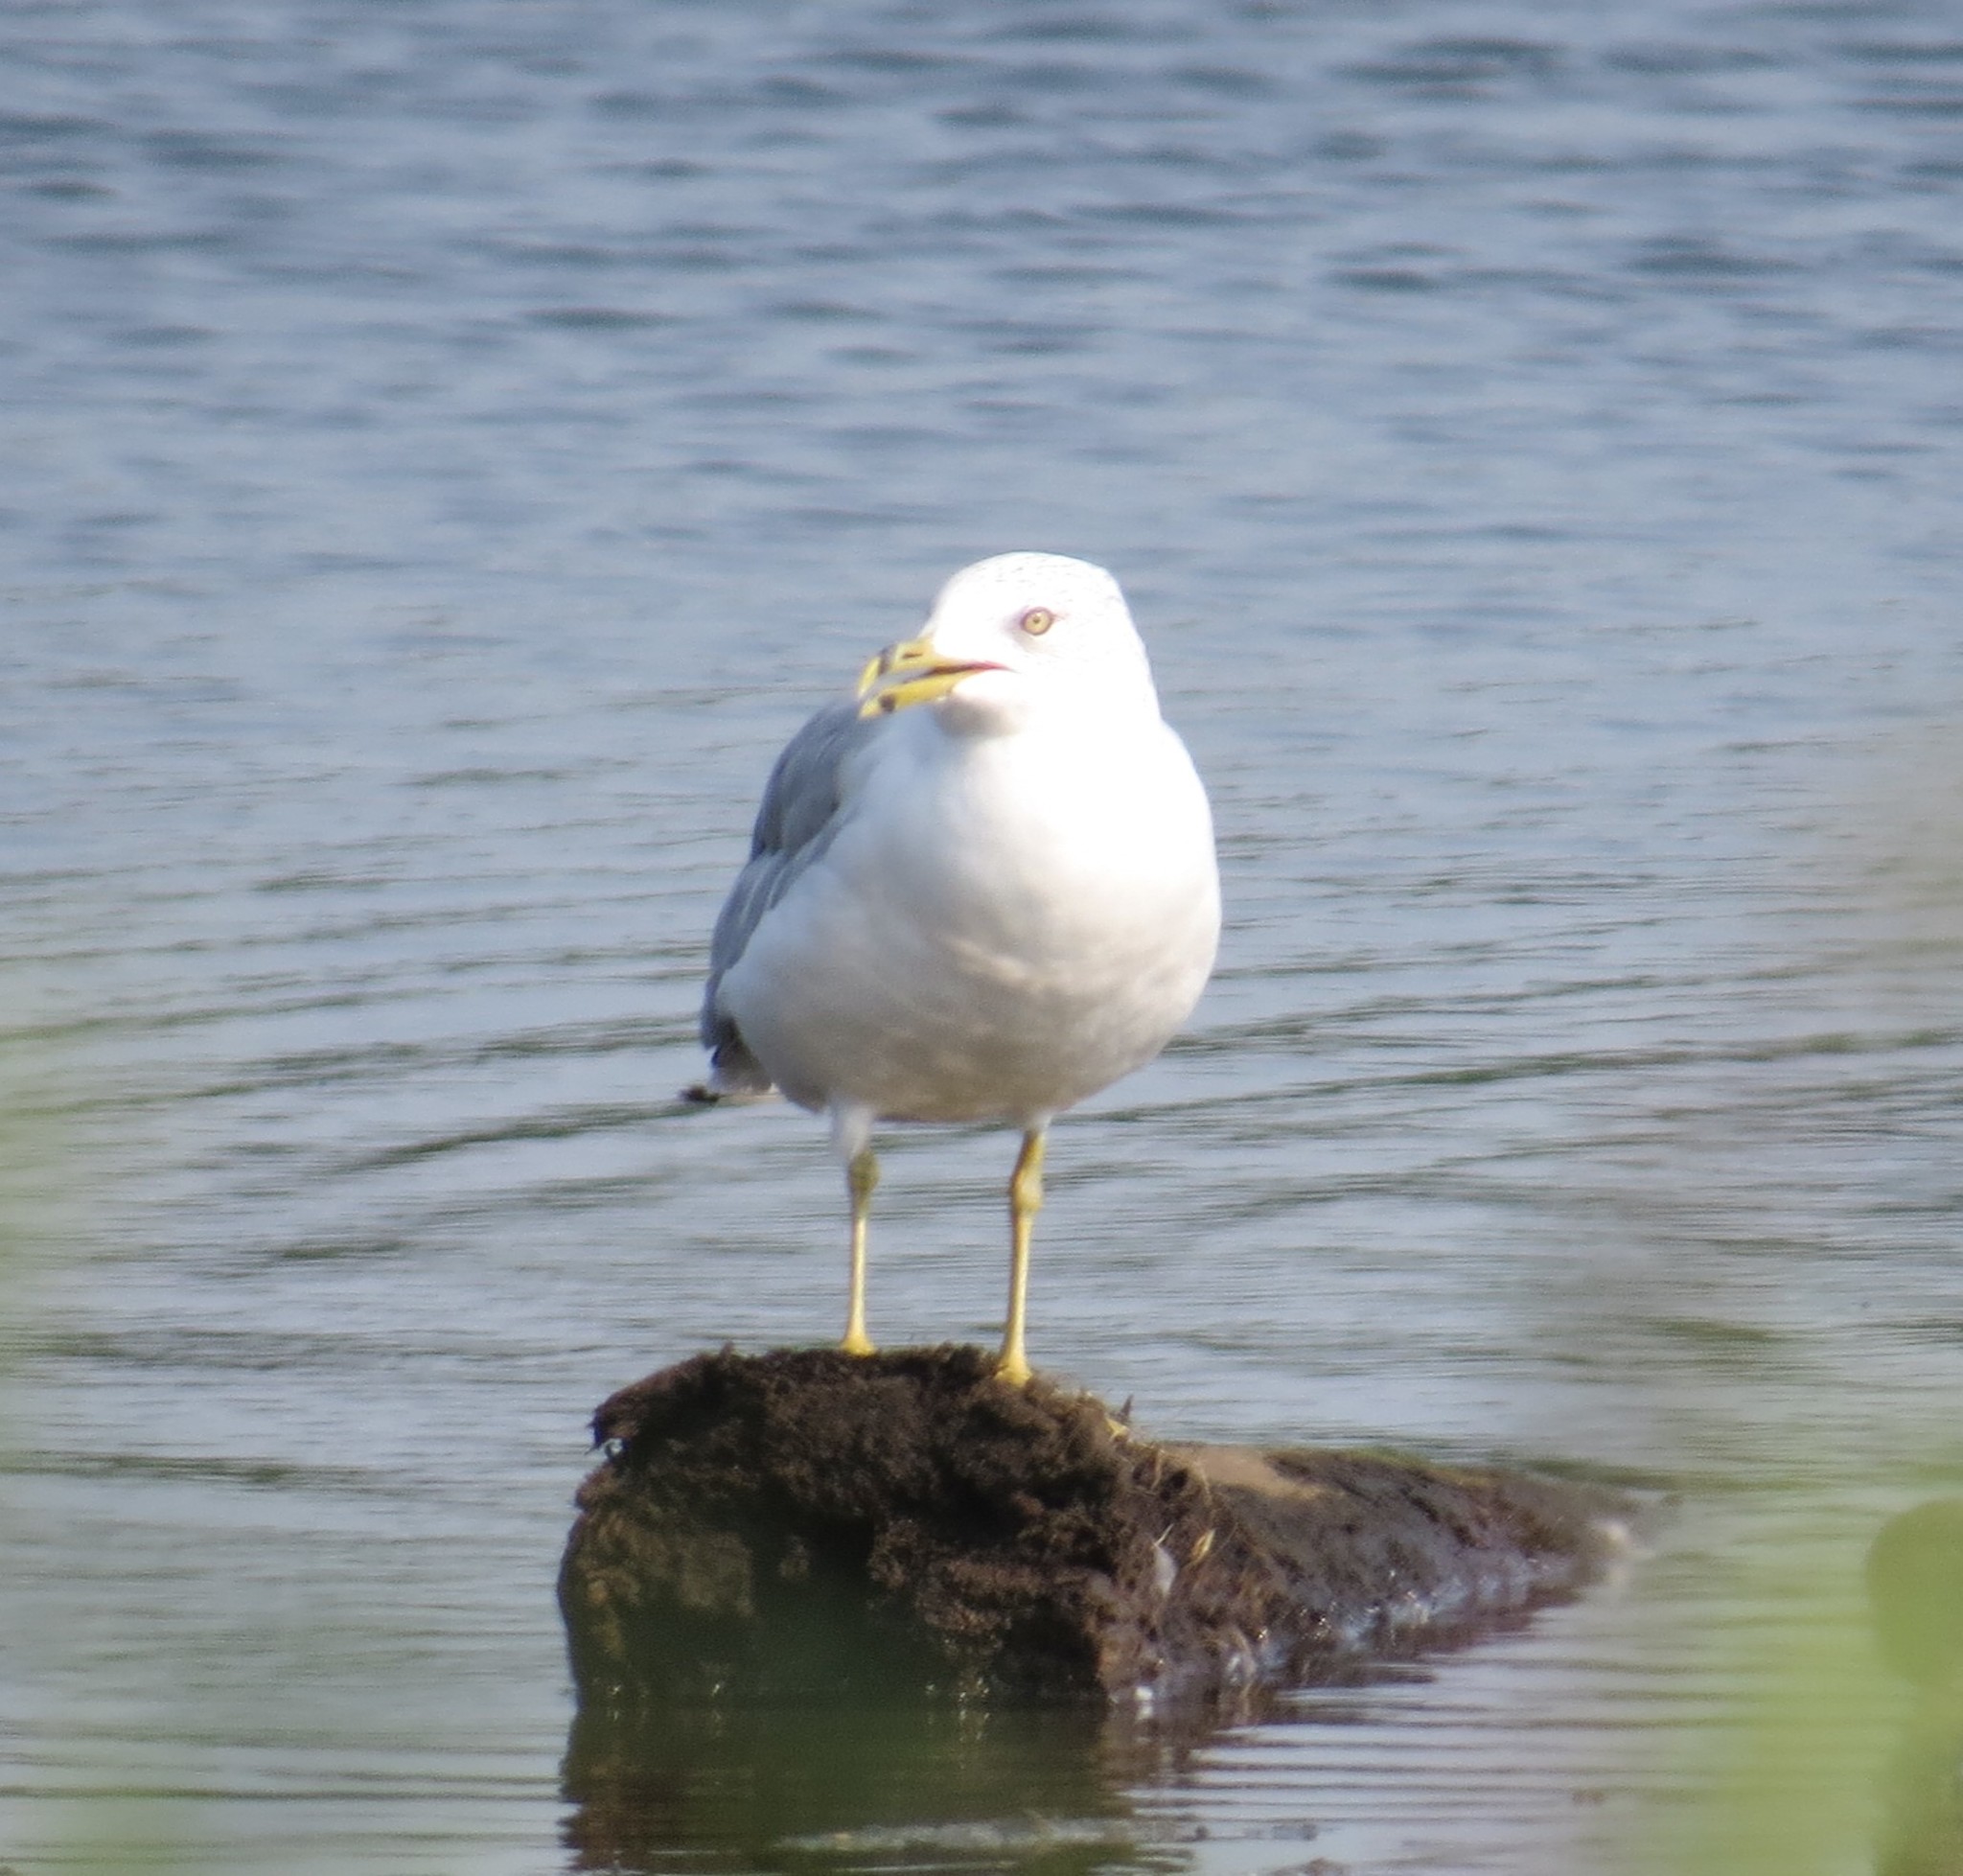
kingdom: Animalia
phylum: Chordata
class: Aves
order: Charadriiformes
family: Laridae
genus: Larus
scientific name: Larus delawarensis
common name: Ring-billed gull
